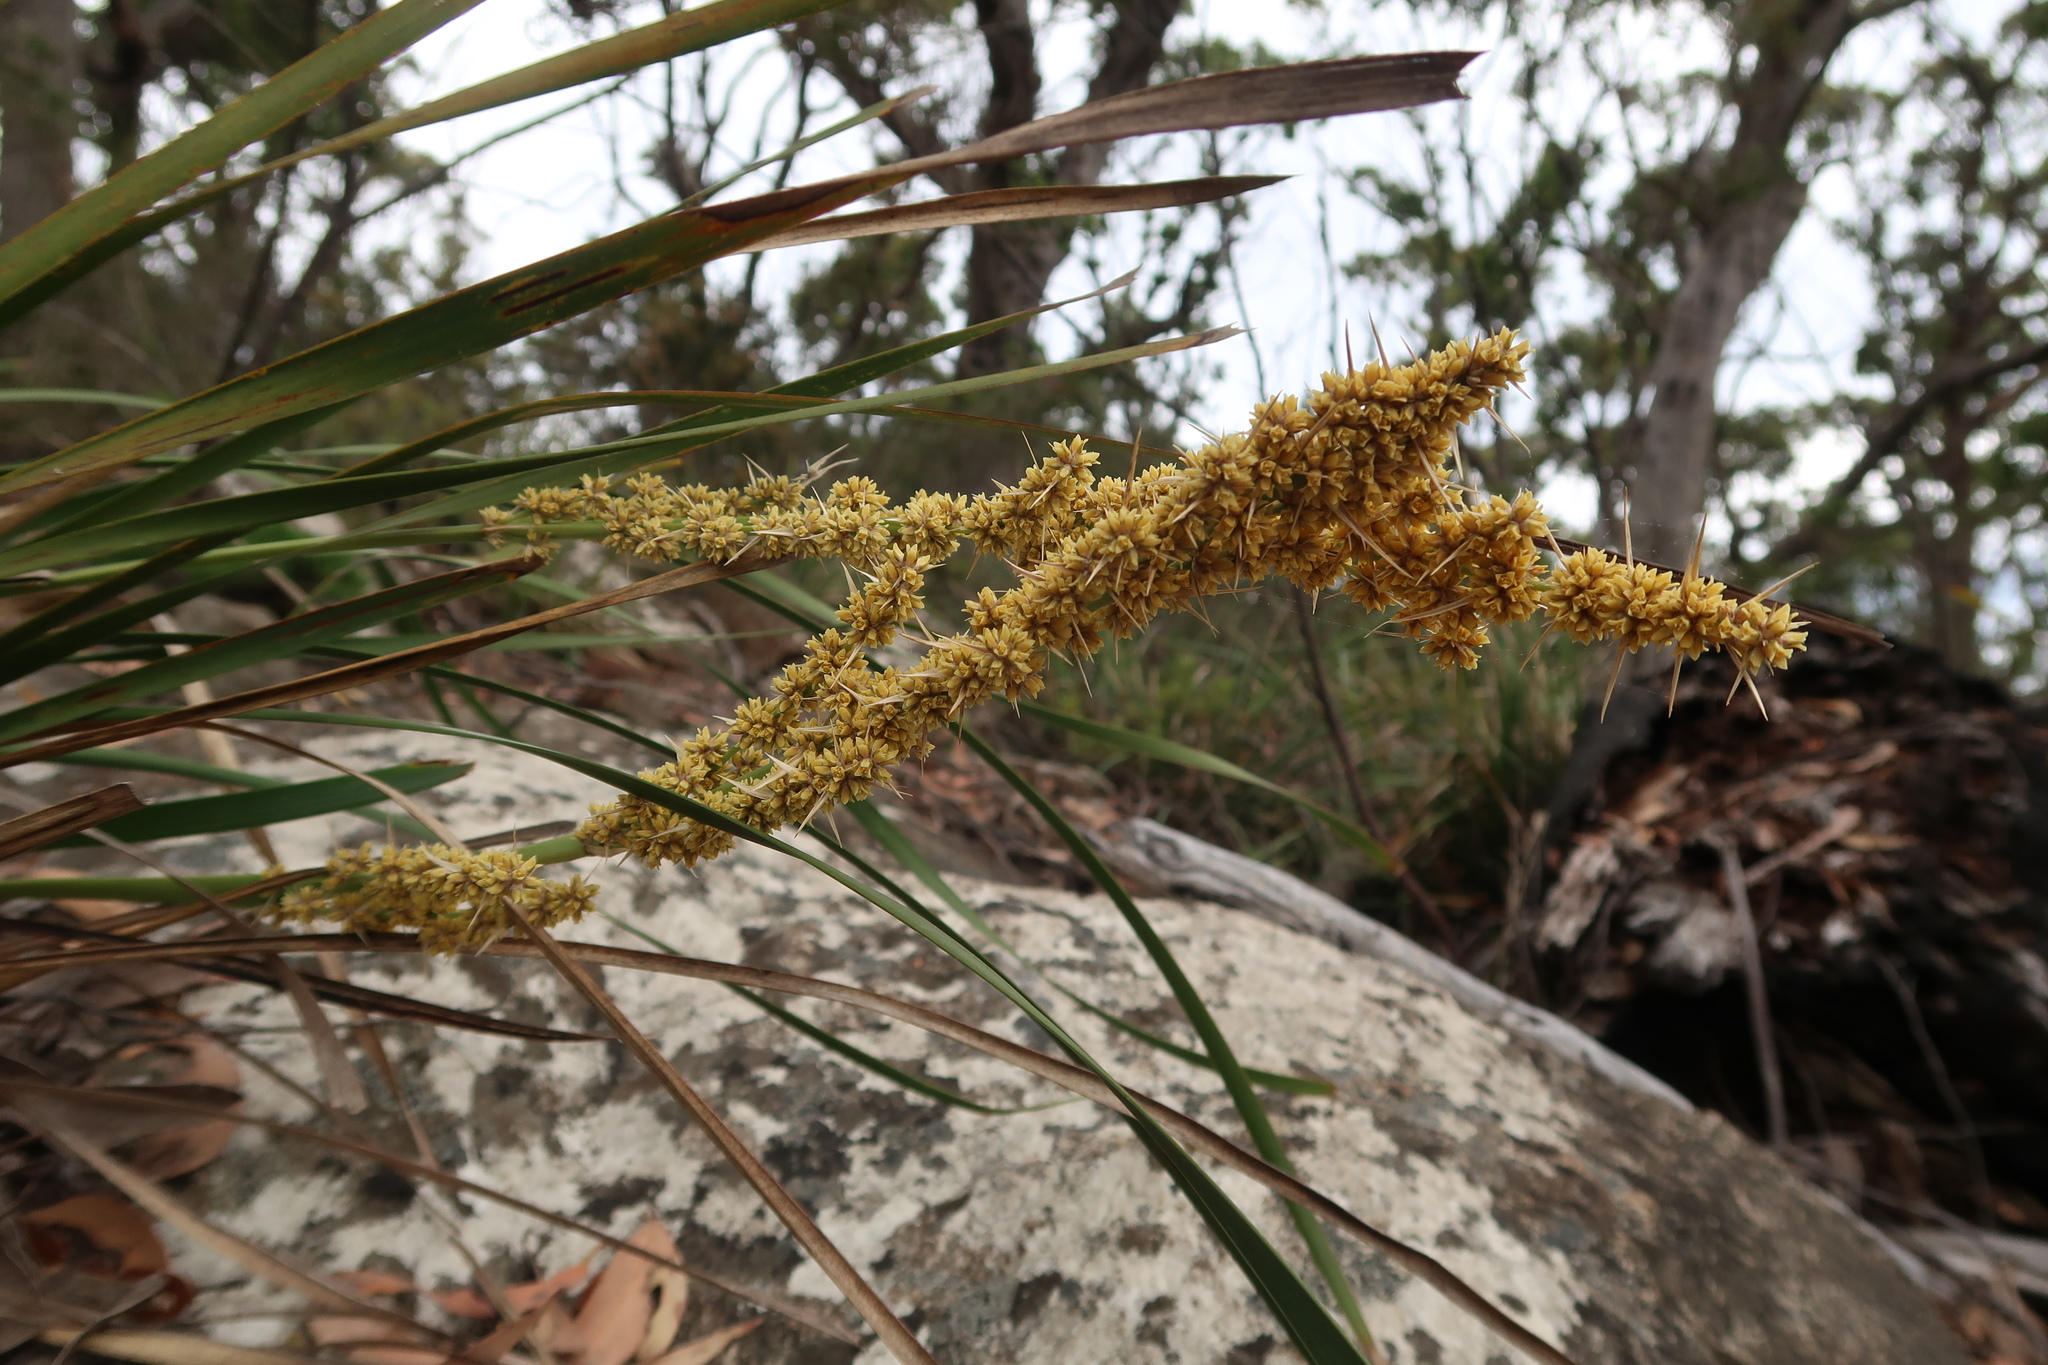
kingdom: Plantae
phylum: Tracheophyta
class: Liliopsida
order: Asparagales
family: Asparagaceae
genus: Lomandra
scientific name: Lomandra longifolia
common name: Longleaf mat-rush
